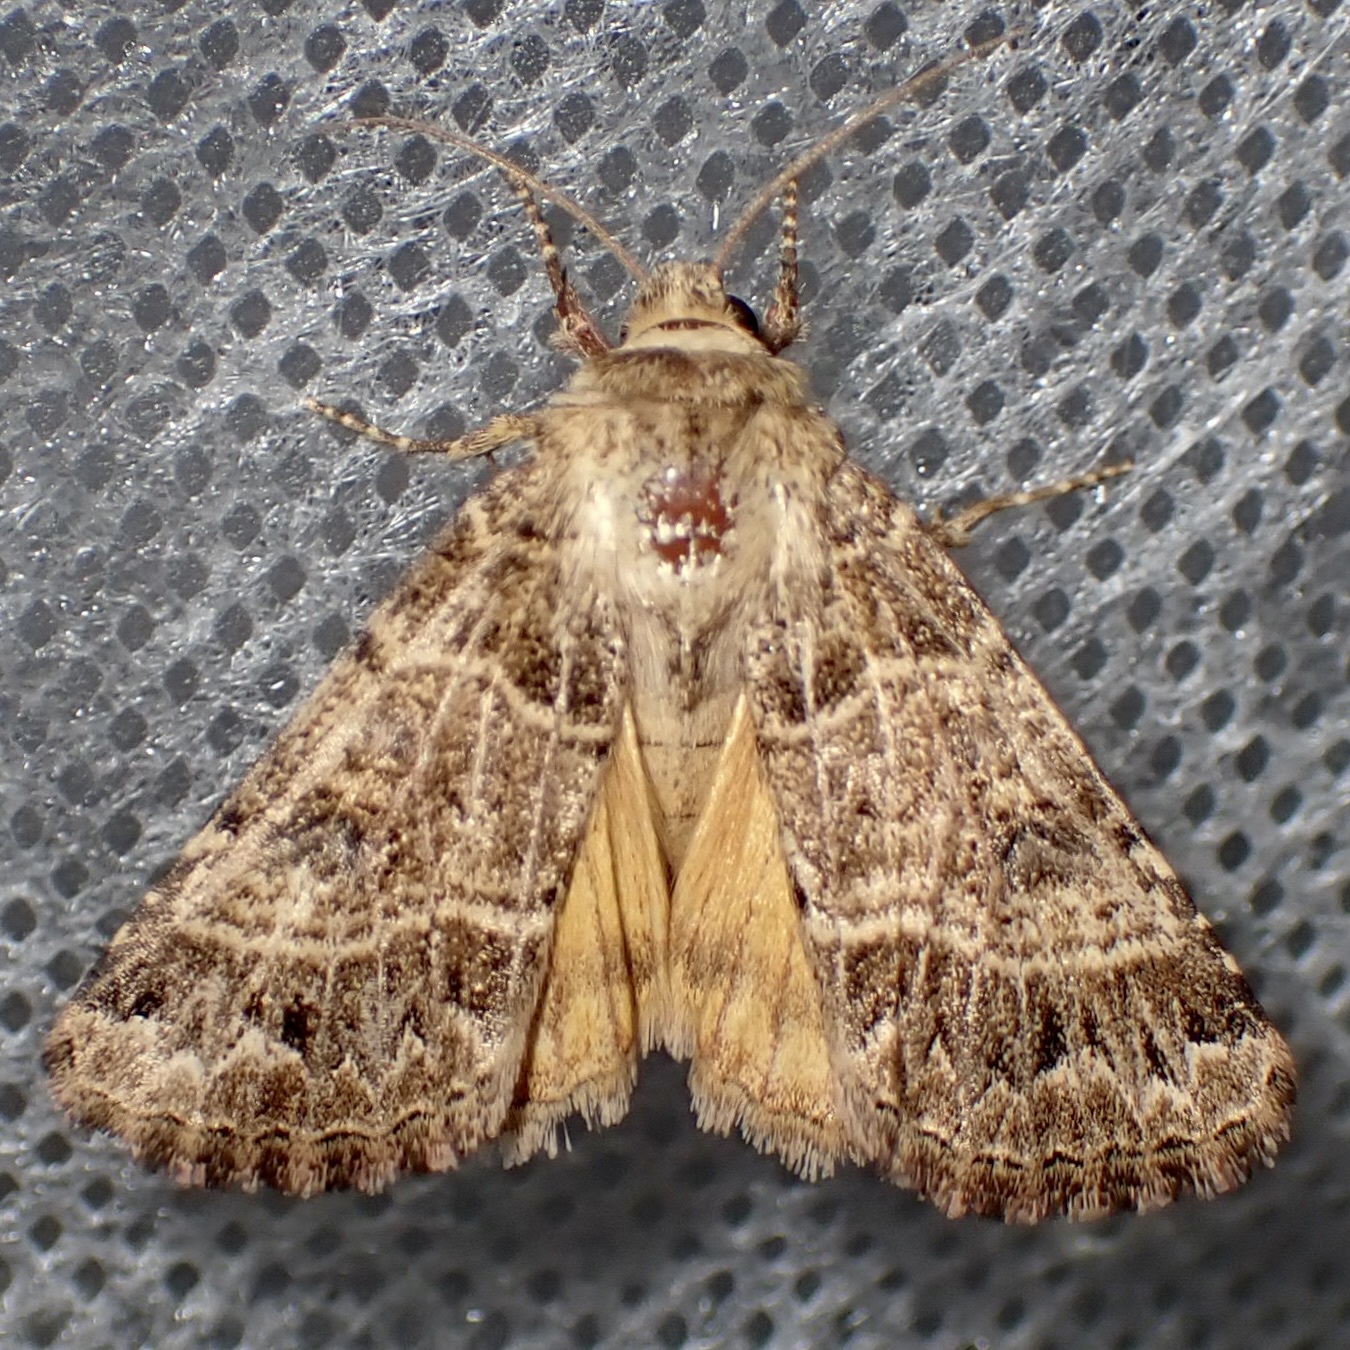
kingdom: Animalia
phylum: Arthropoda
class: Insecta
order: Lepidoptera
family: Noctuidae
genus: Schinia
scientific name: Schinia mexicana
